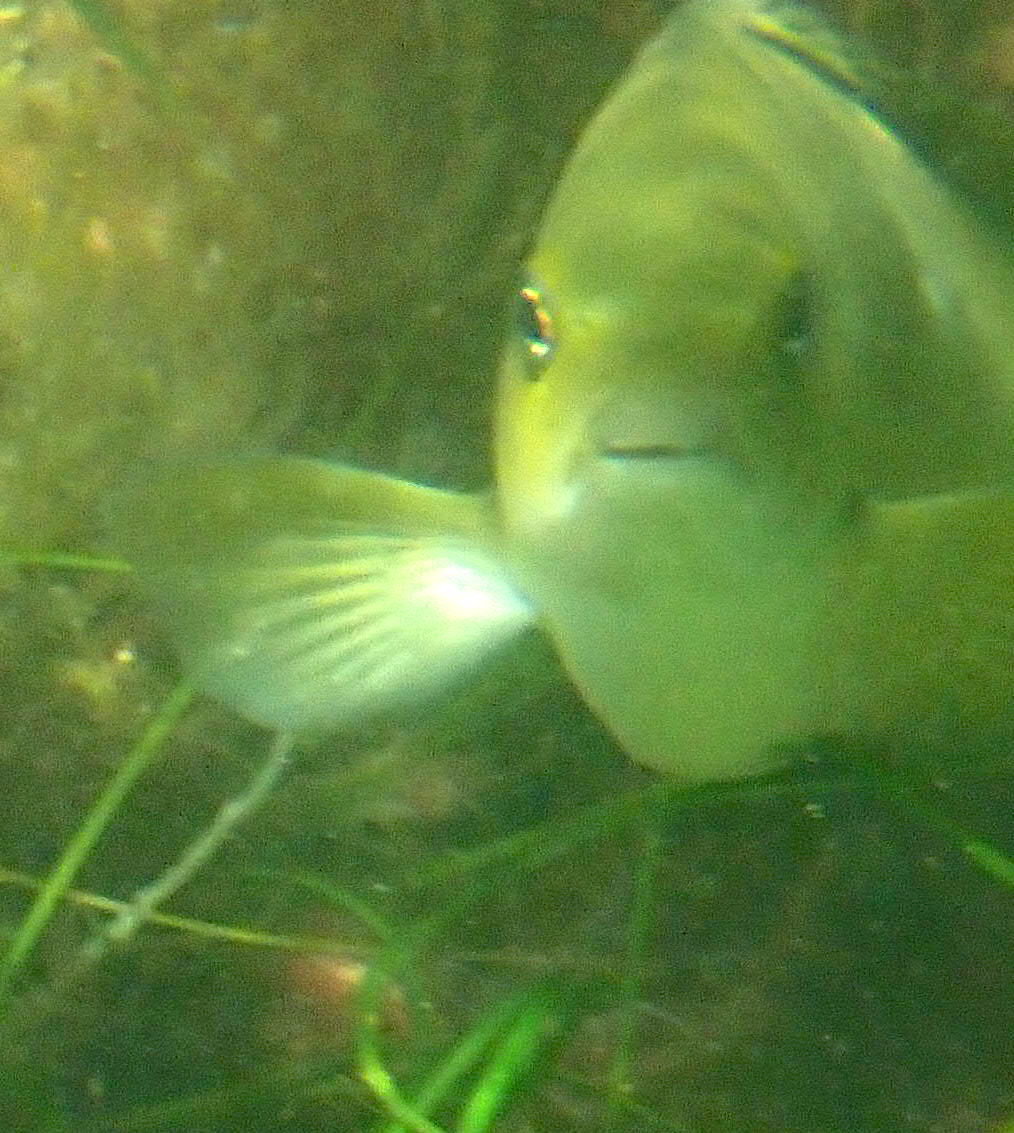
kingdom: Animalia
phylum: Chordata
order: Perciformes
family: Kyphosidae
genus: Girella
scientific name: Girella nigricans
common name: Opaleye
